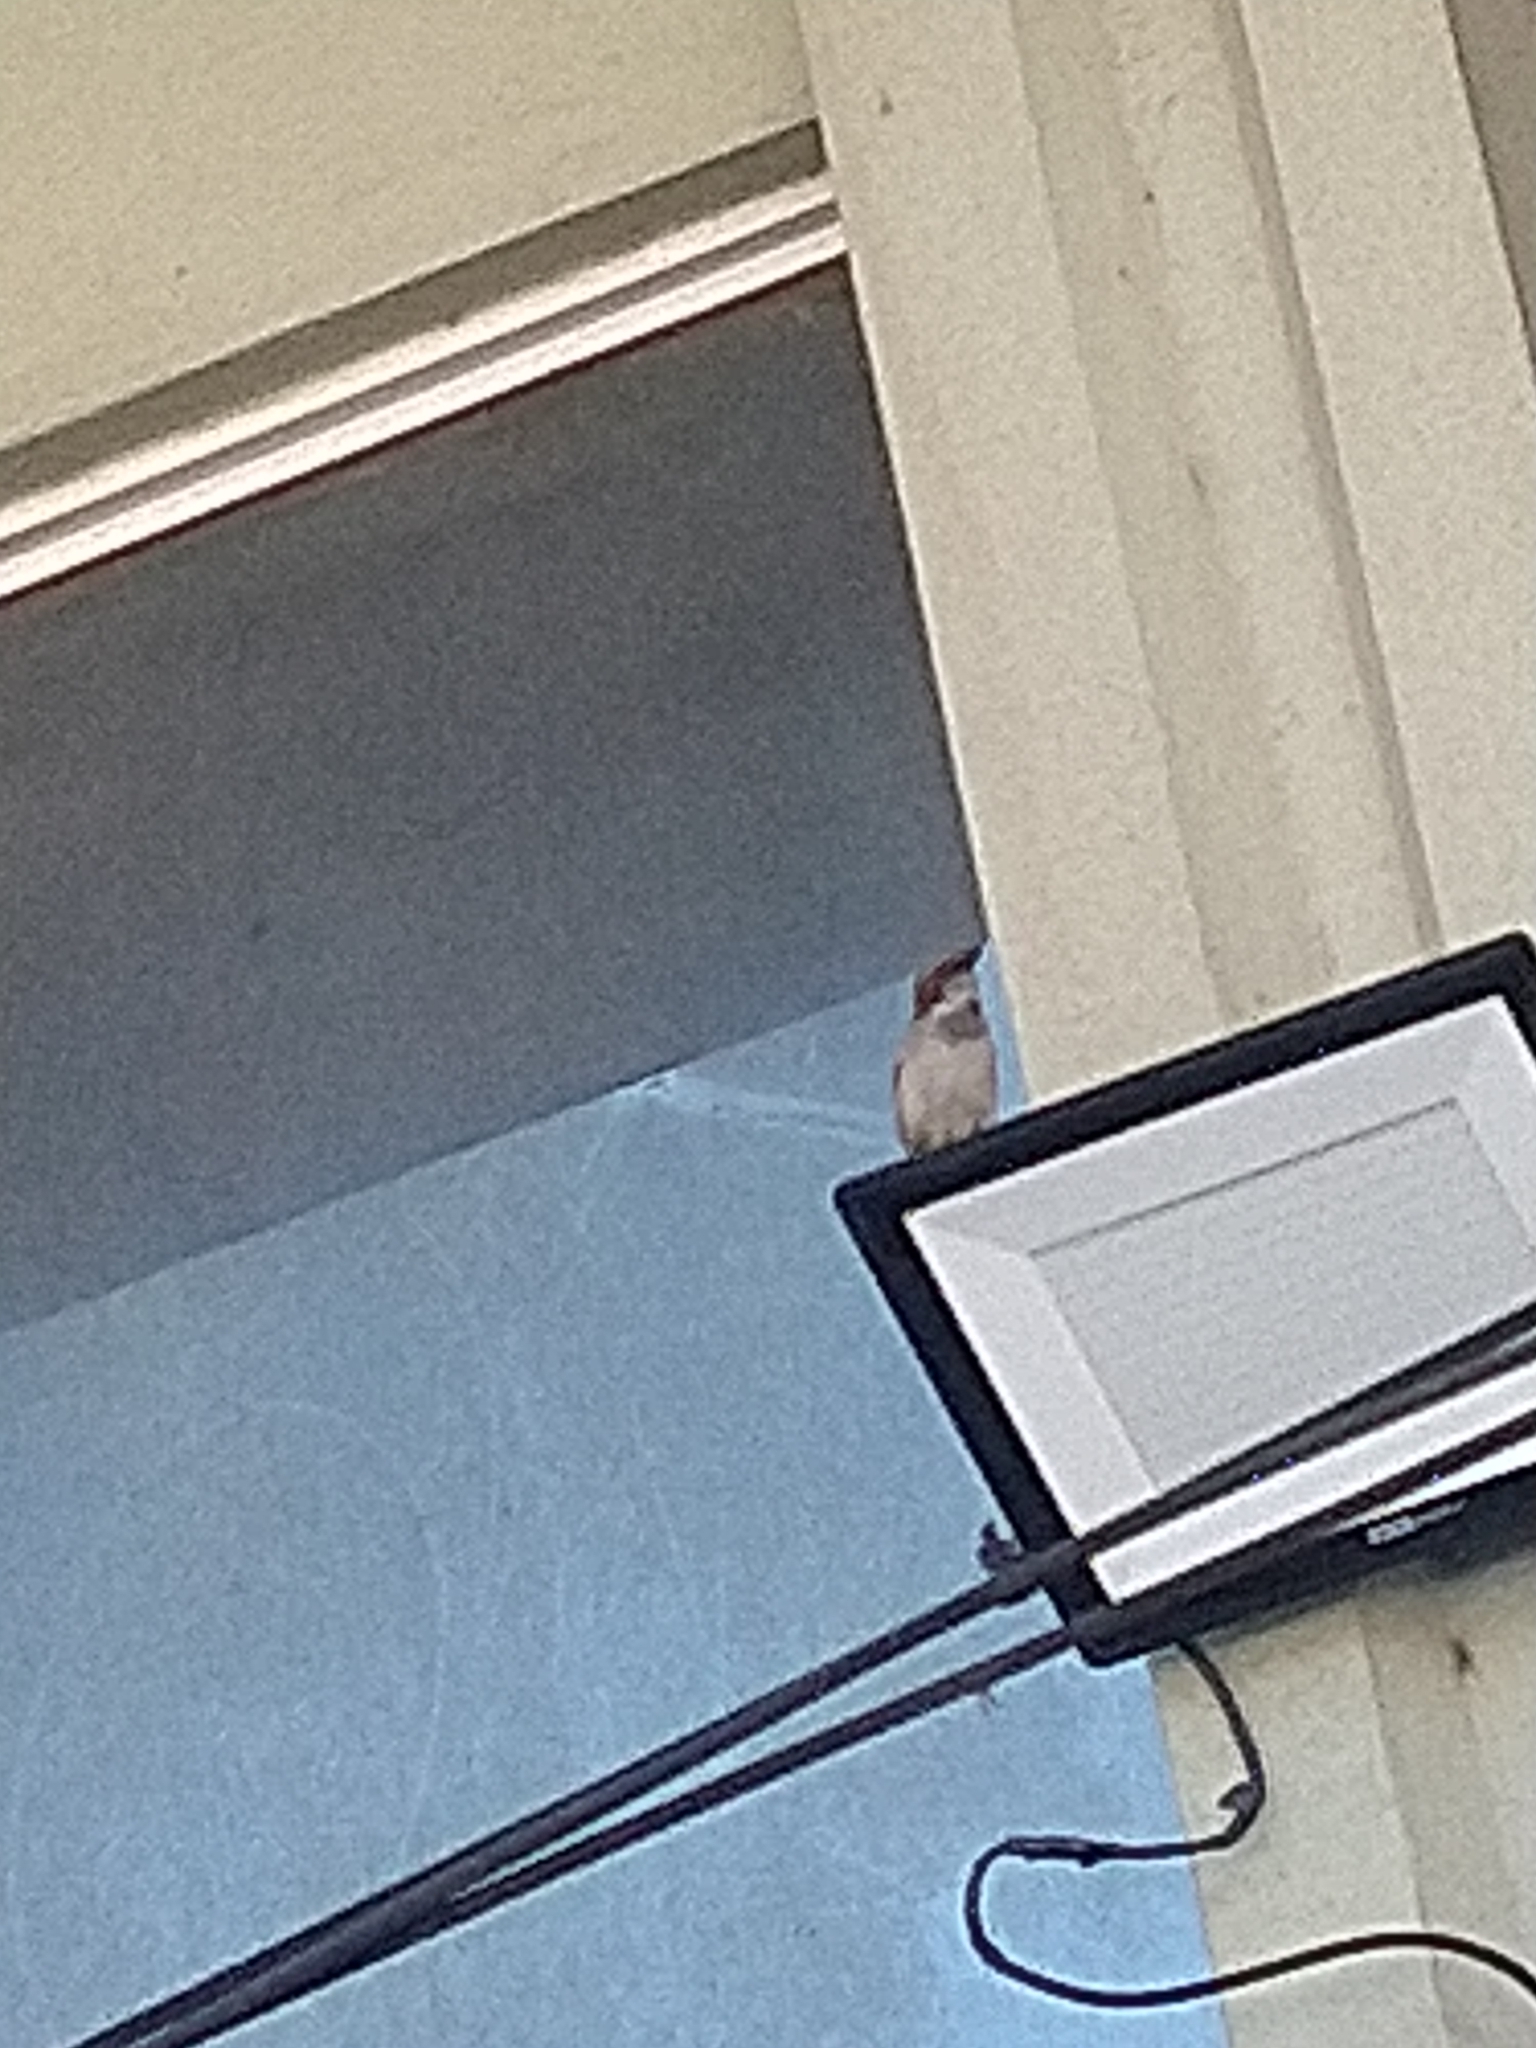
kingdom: Animalia
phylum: Chordata
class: Aves
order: Passeriformes
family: Passeridae
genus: Passer
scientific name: Passer domesticus
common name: House sparrow
